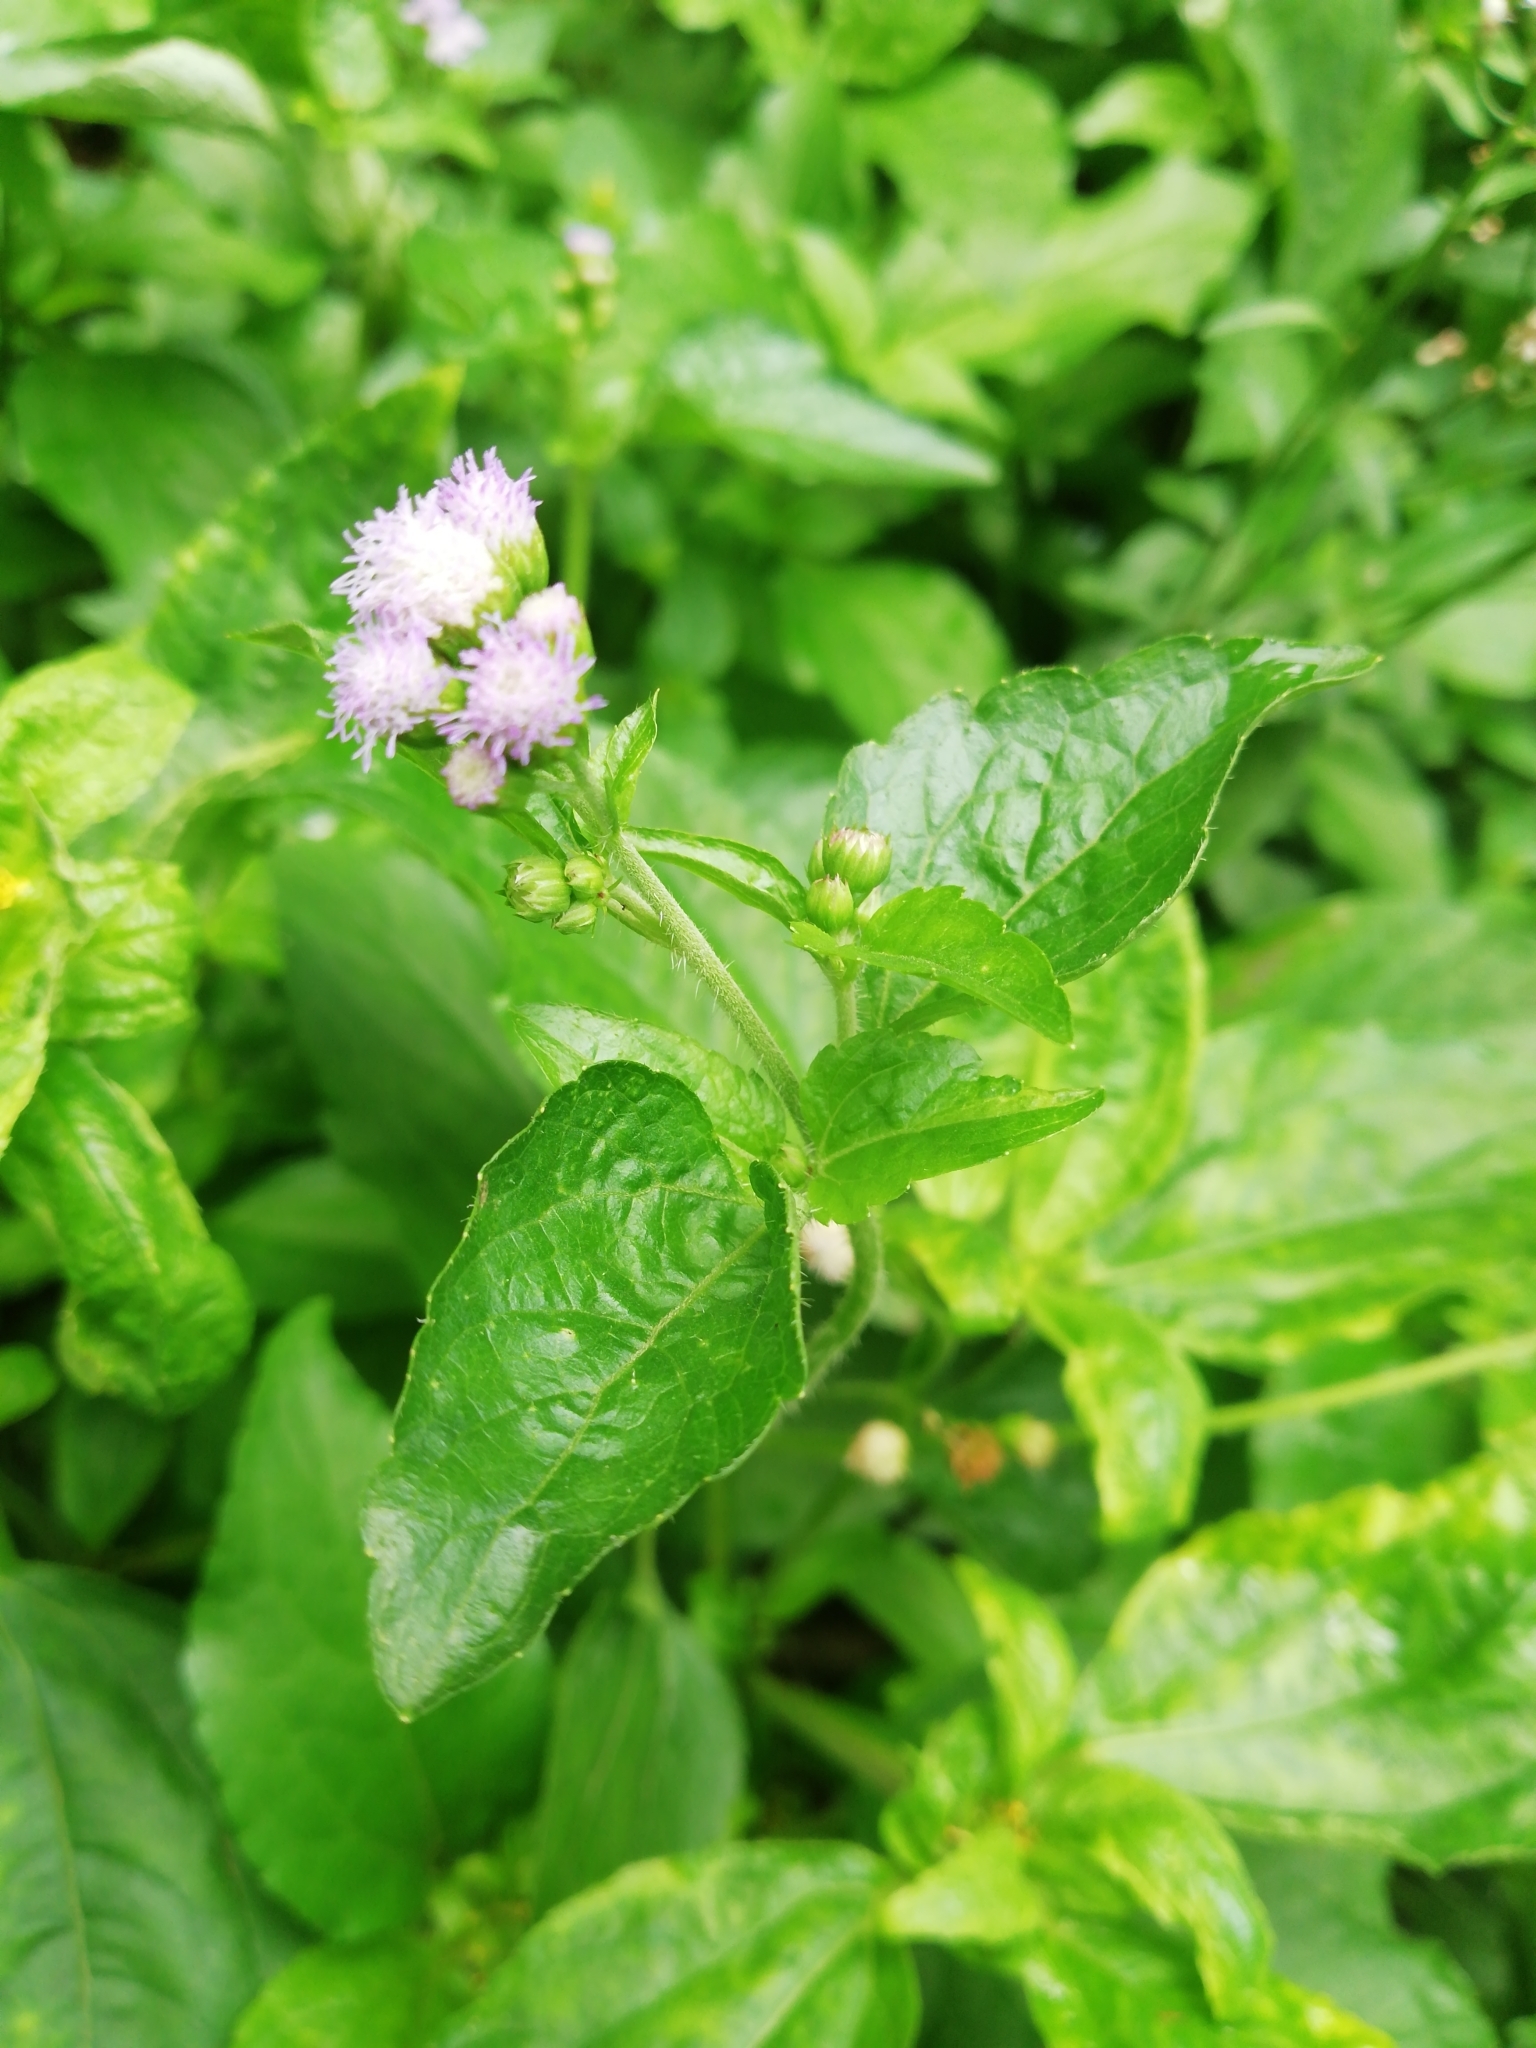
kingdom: Plantae
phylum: Tracheophyta
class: Magnoliopsida
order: Asterales
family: Asteraceae
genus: Ageratum
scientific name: Ageratum conyzoides
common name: Tropical whiteweed
